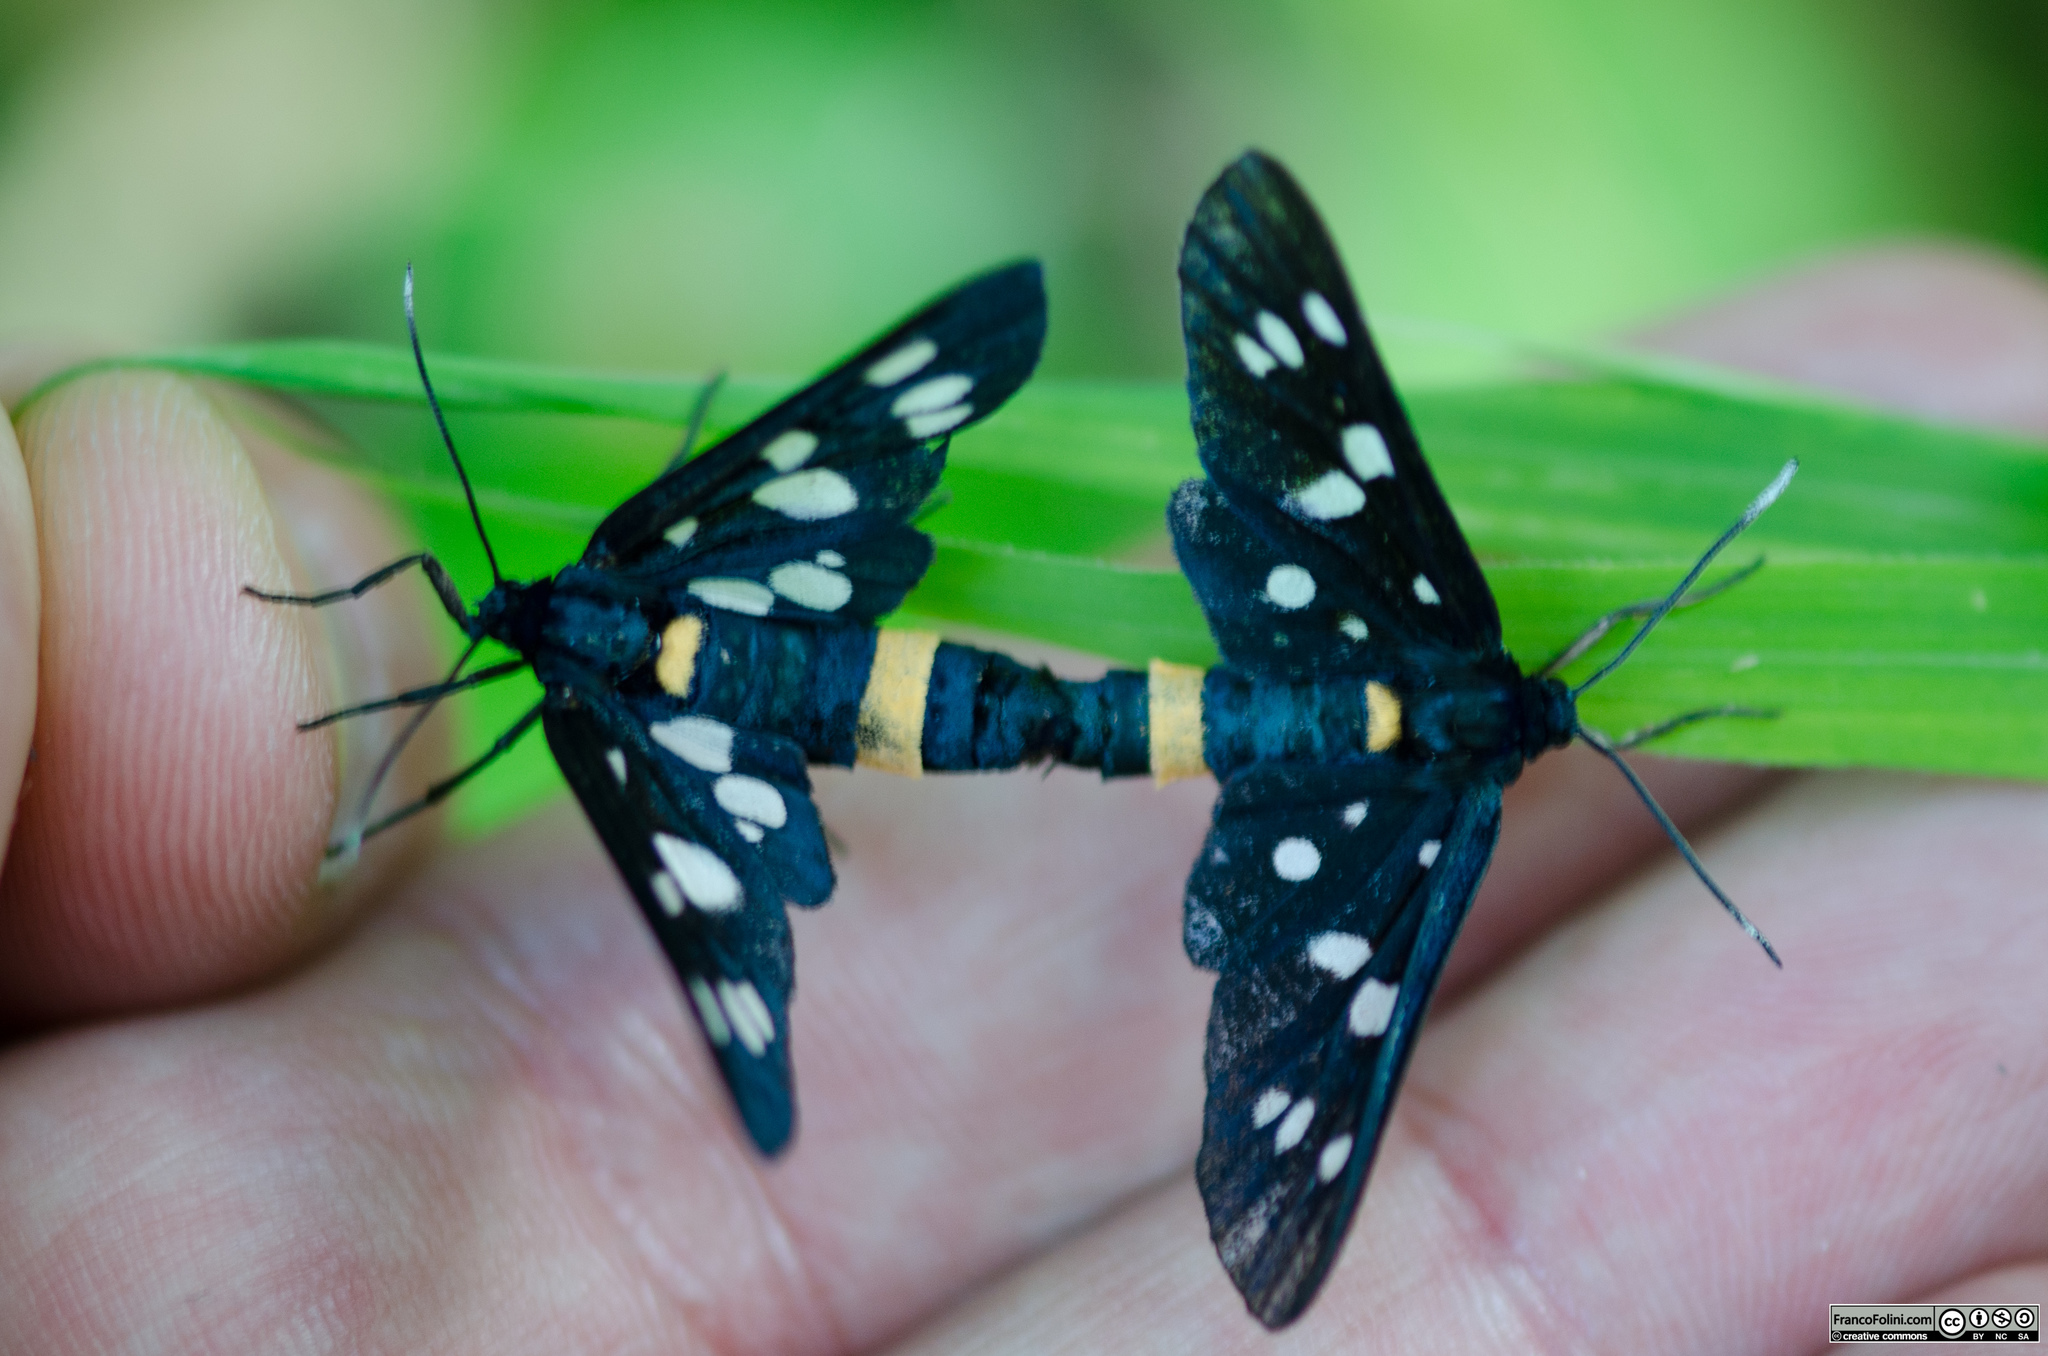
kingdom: Animalia
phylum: Arthropoda
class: Insecta
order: Lepidoptera
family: Erebidae
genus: Amata
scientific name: Amata phegea
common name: Nine-spotted
